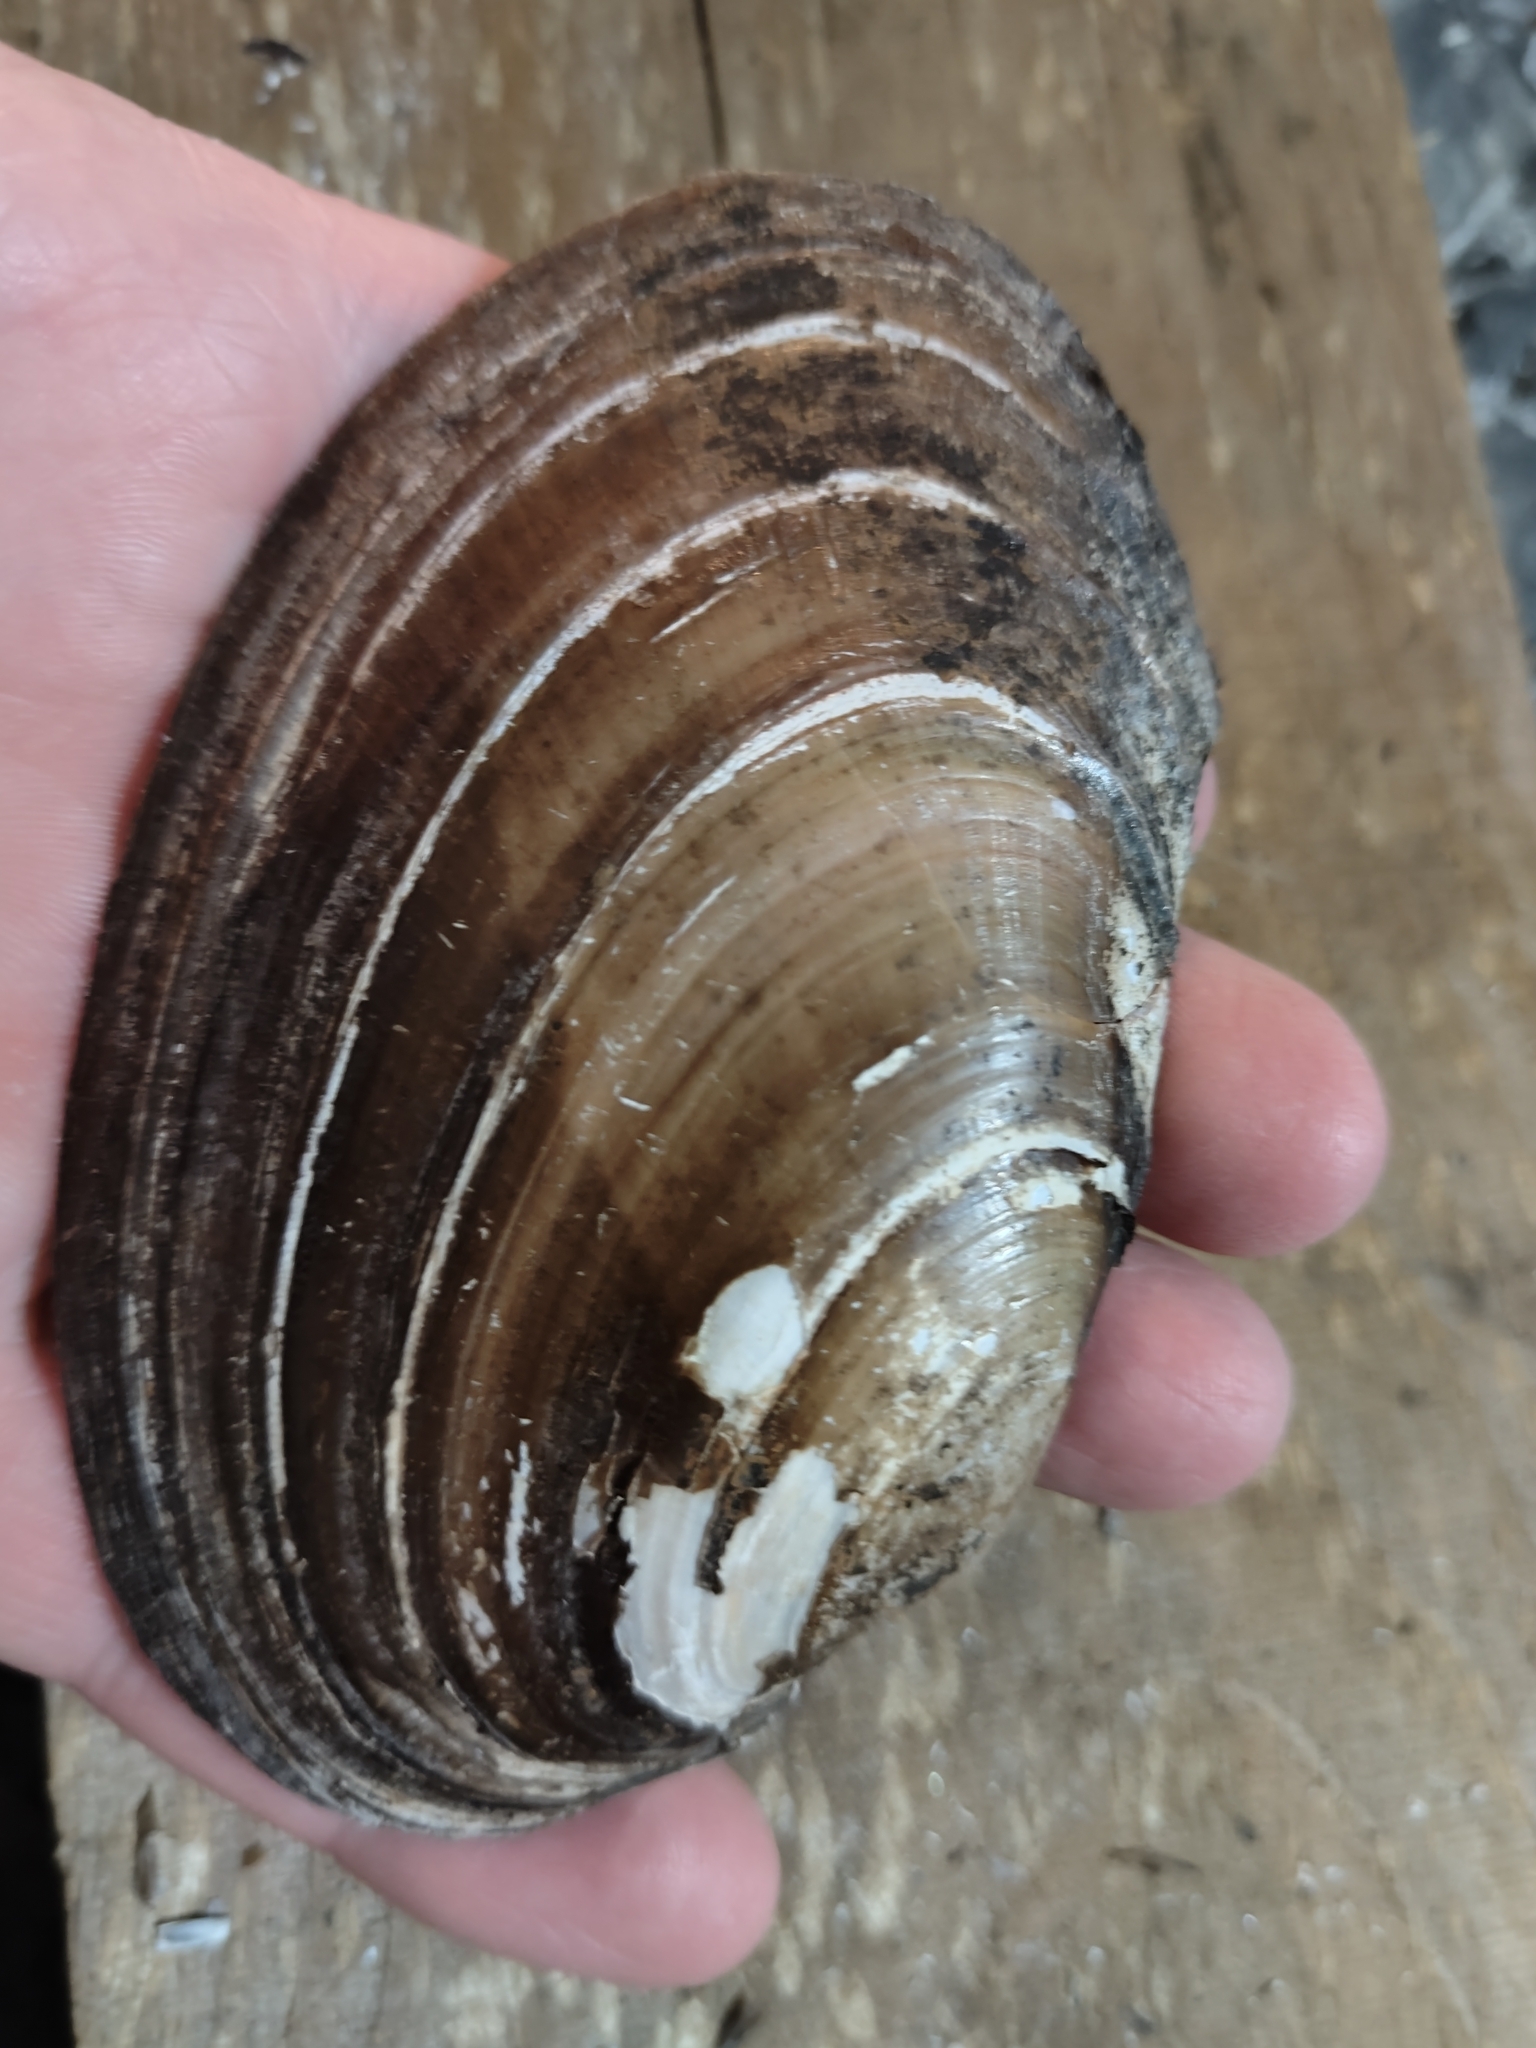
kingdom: Animalia
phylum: Mollusca
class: Bivalvia
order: Unionida
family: Unionidae
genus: Potamilus
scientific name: Potamilus ohiensis
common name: Pink papershell
